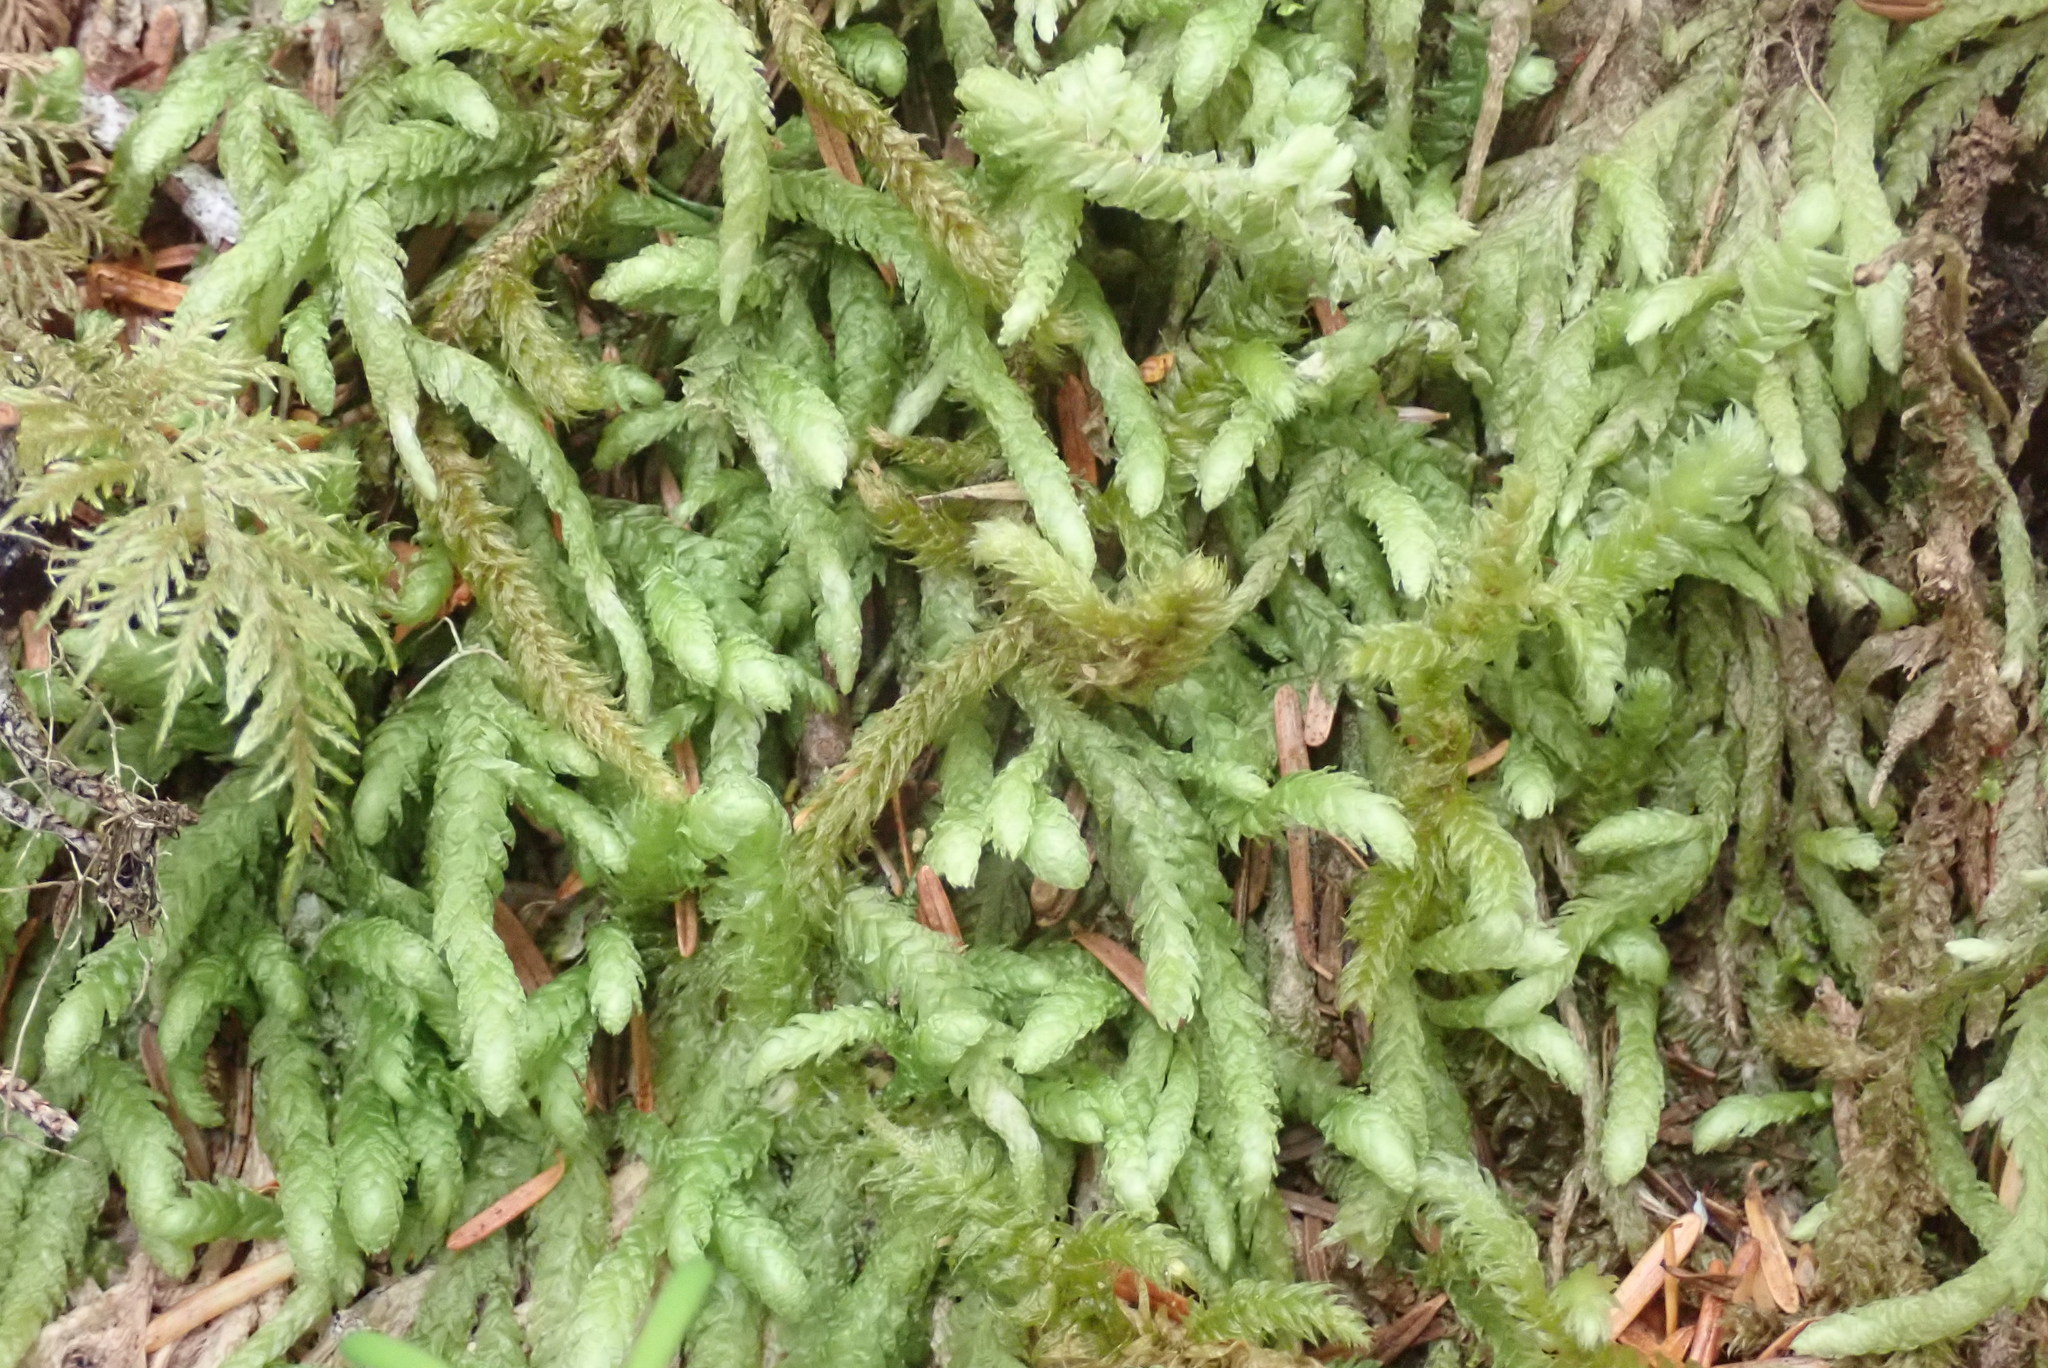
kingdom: Plantae
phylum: Bryophyta
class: Bryopsida
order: Hypnales
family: Plagiotheciaceae
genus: Plagiothecium
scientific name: Plagiothecium undulatum
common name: Waved silk-moss
